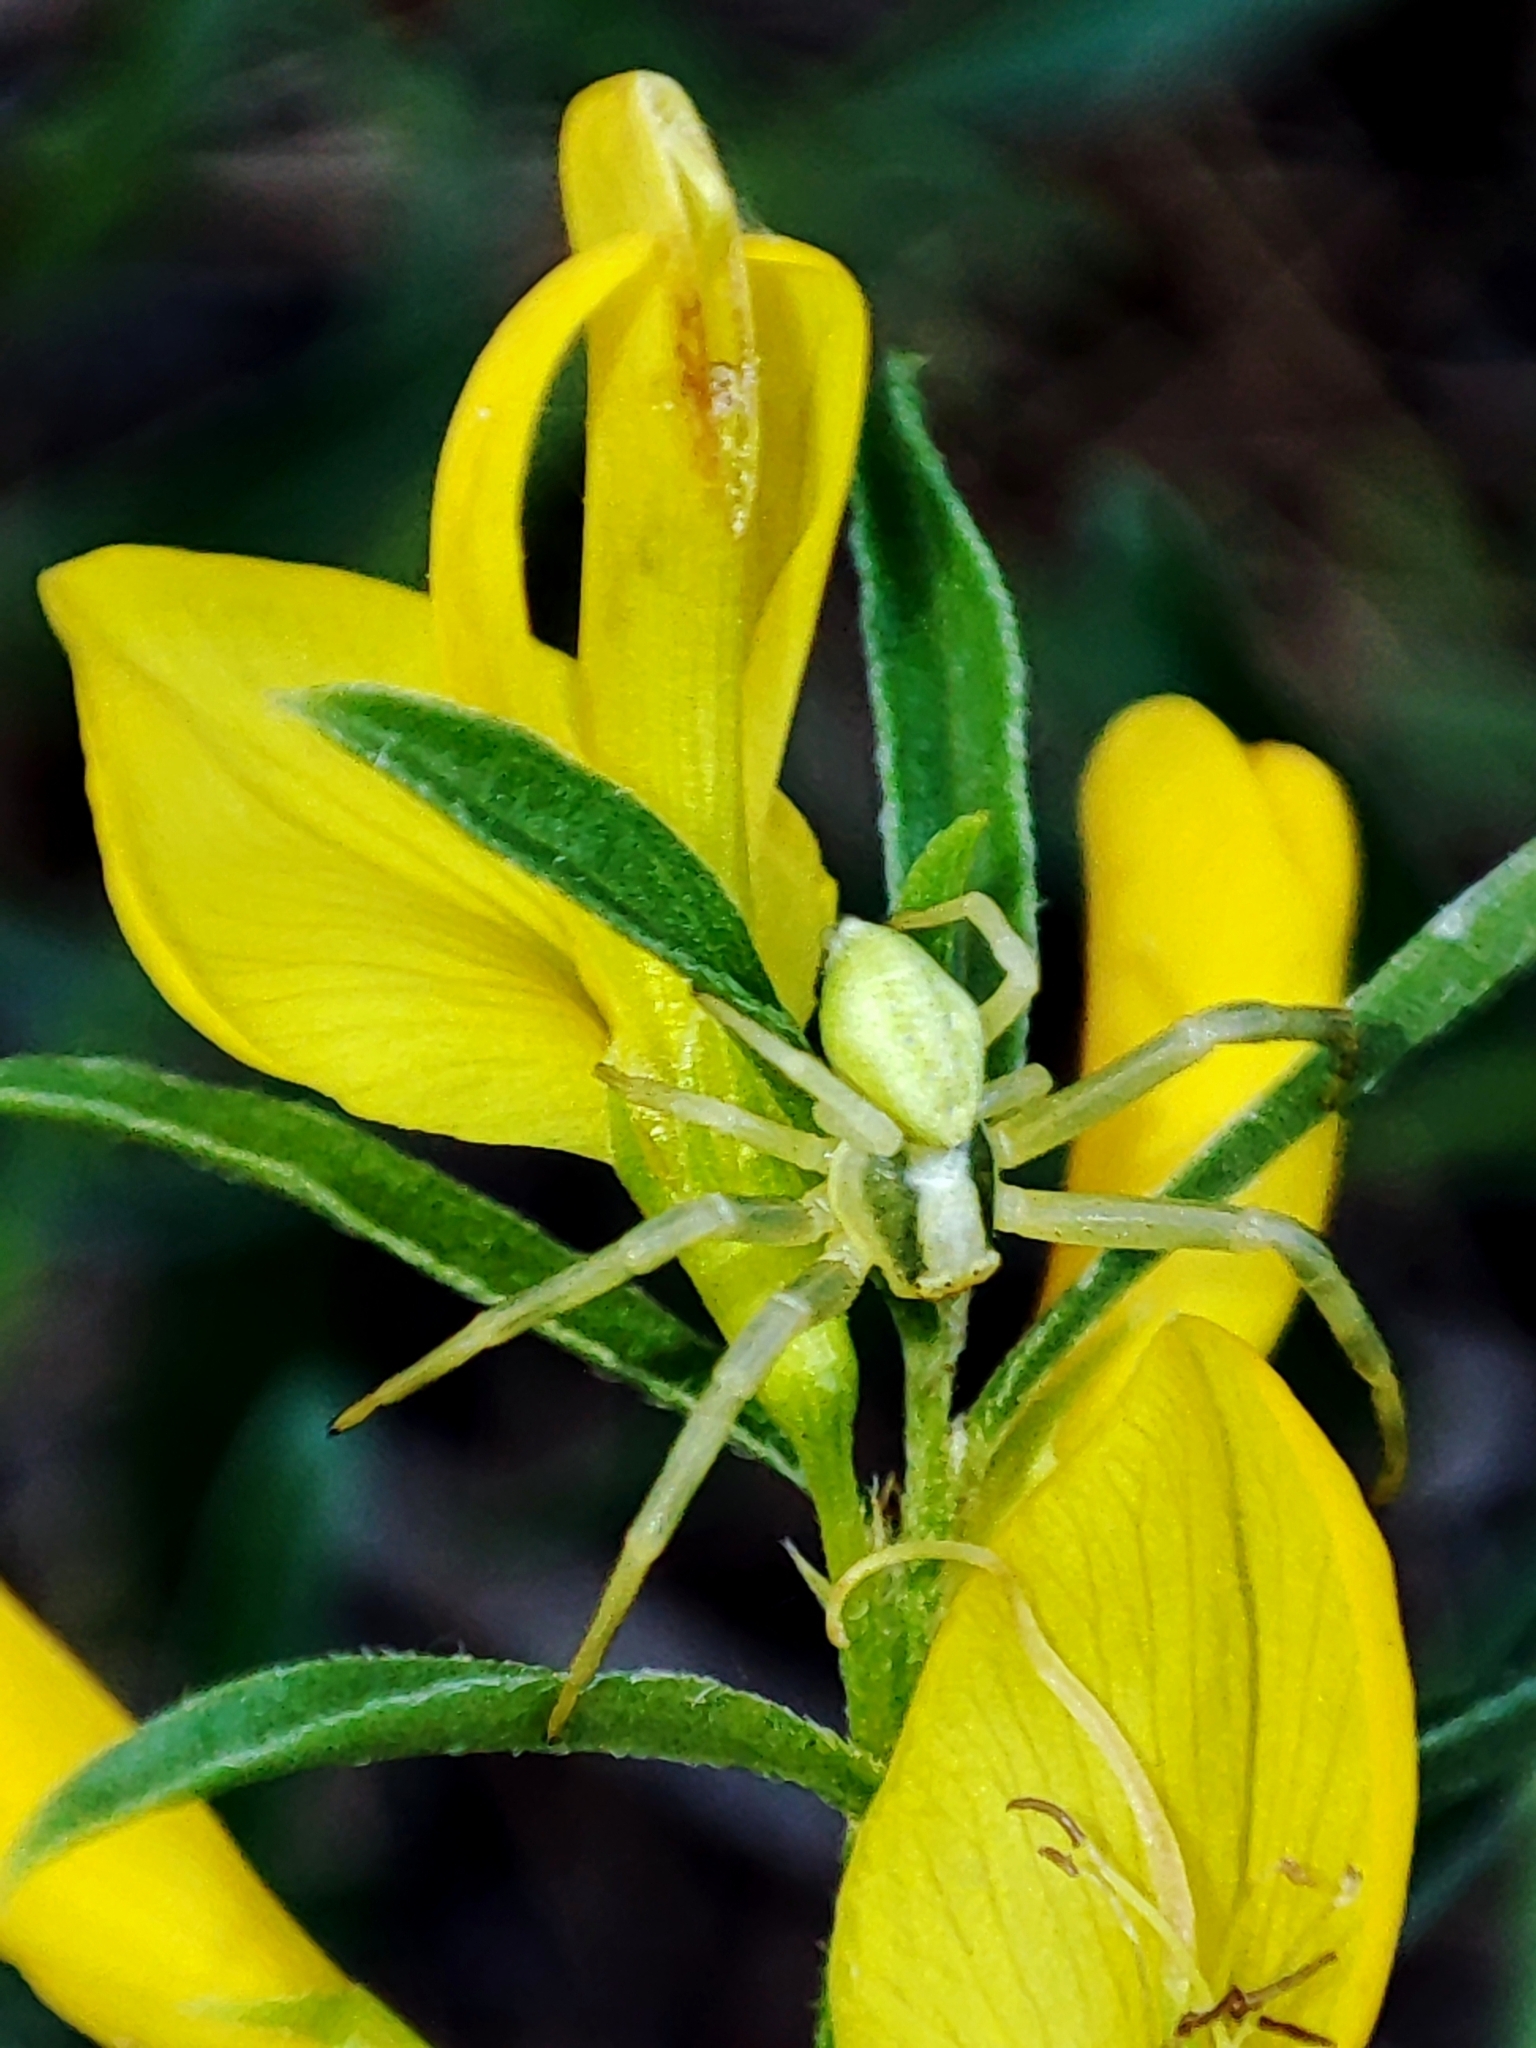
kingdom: Animalia
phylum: Arthropoda
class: Arachnida
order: Araneae
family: Thomisidae
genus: Misumena
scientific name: Misumena vatia
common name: Goldenrod crab spider
